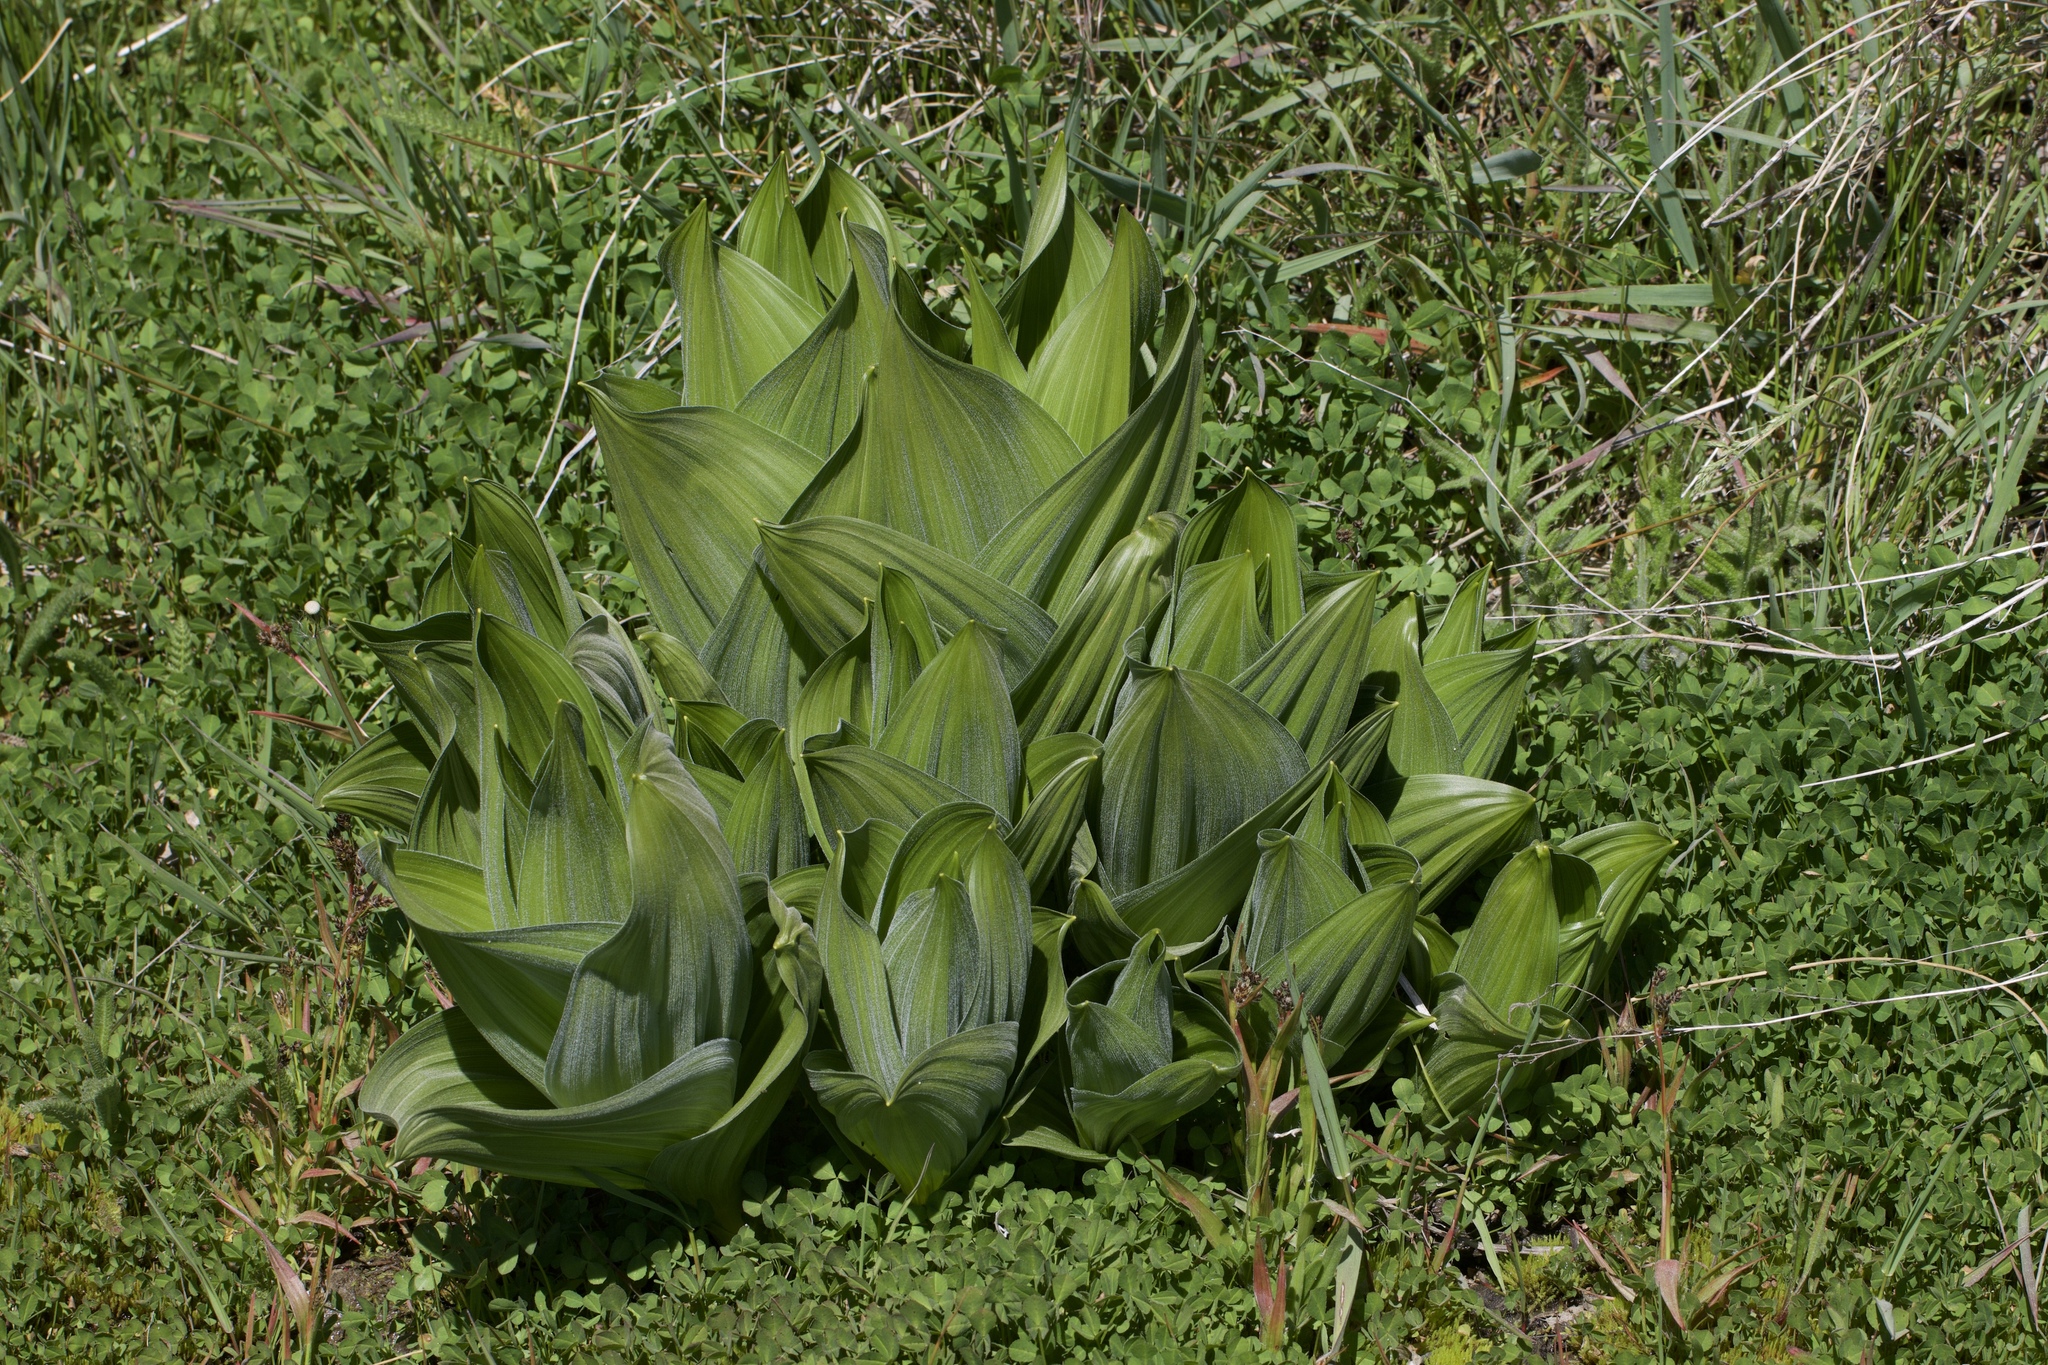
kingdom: Plantae
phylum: Tracheophyta
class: Liliopsida
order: Liliales
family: Melanthiaceae
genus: Veratrum
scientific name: Veratrum californicum
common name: California veratrum
